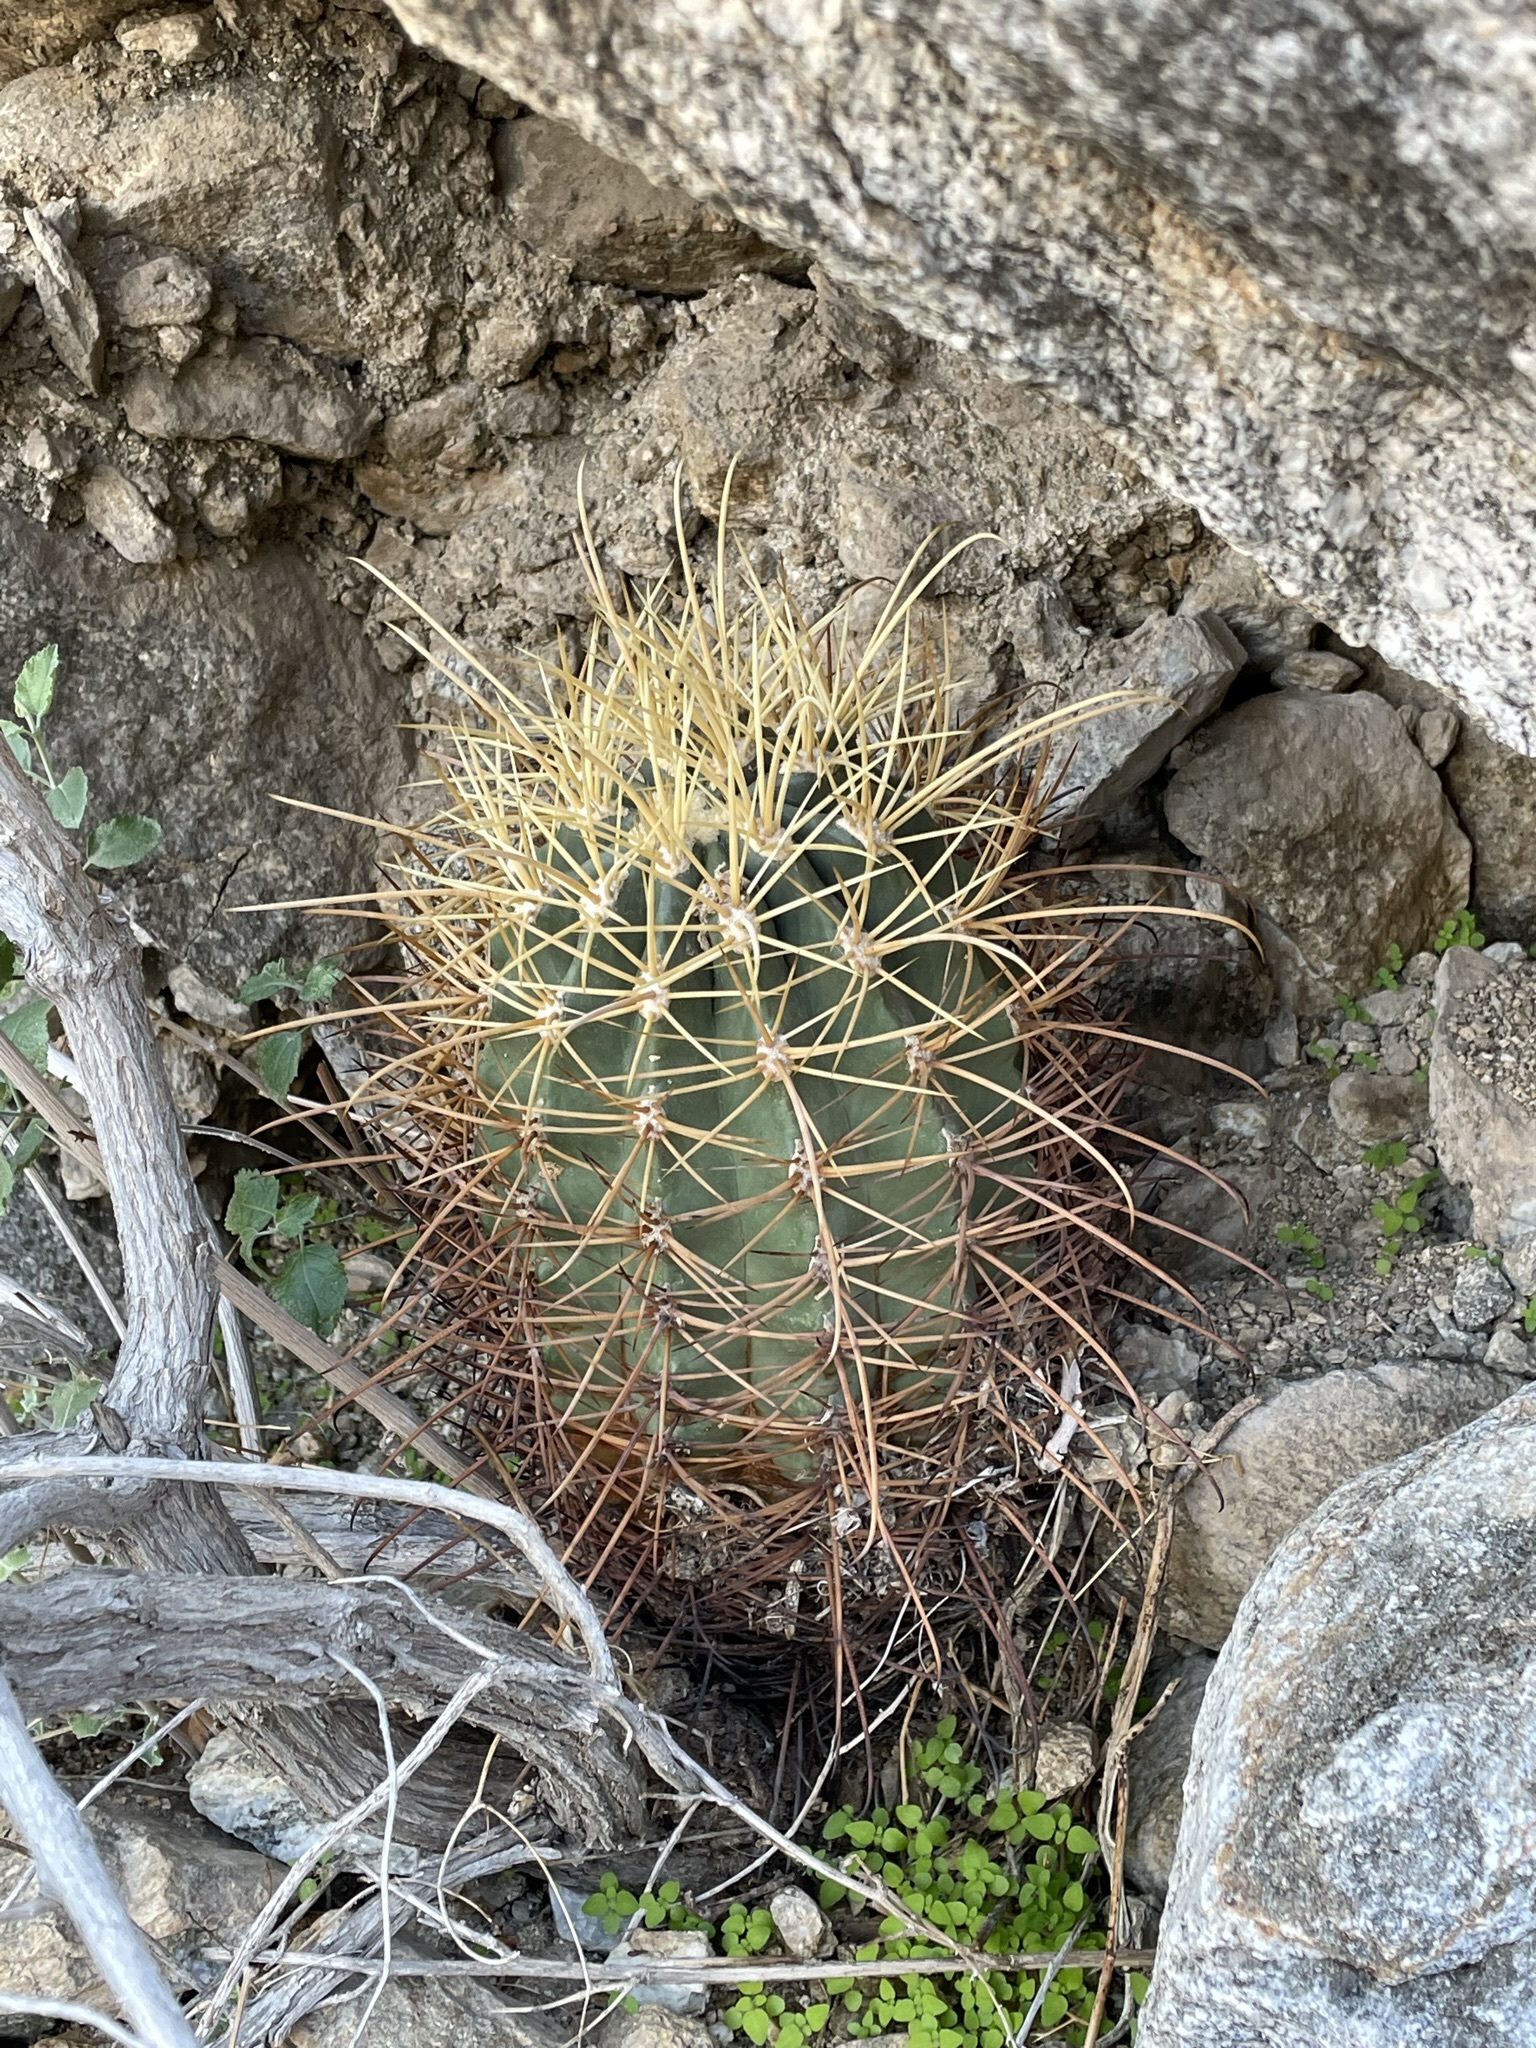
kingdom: Plantae
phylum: Tracheophyta
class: Magnoliopsida
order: Caryophyllales
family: Cactaceae
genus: Ferocactus
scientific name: Ferocactus cylindraceus
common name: California barrel cactus
